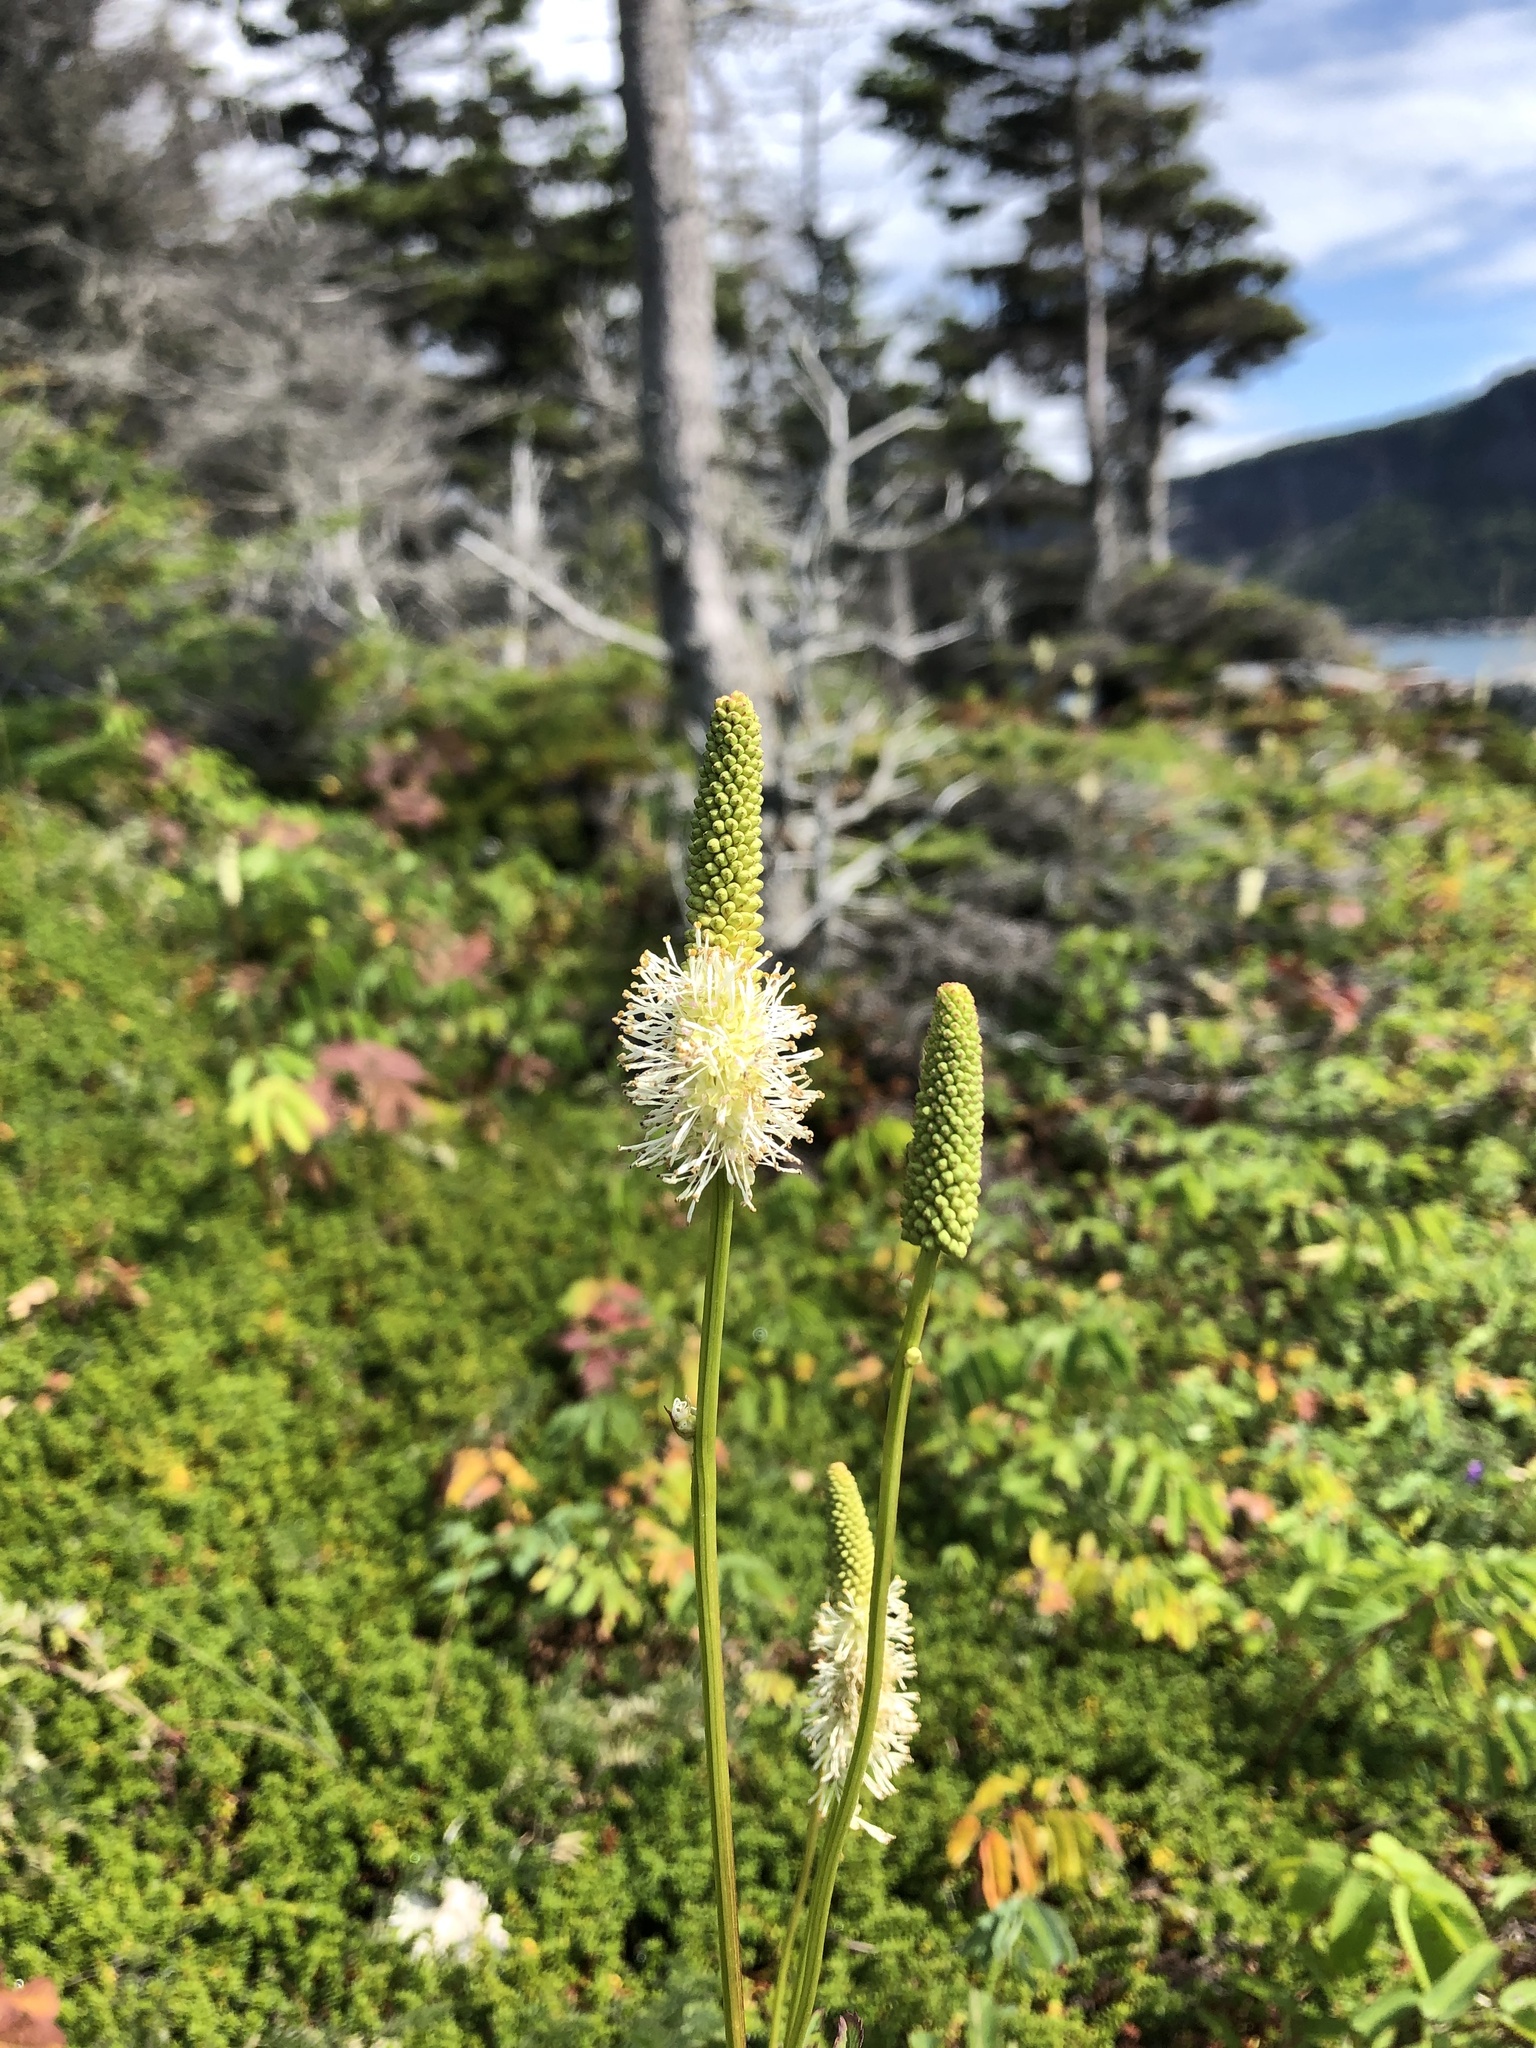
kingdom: Plantae
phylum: Tracheophyta
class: Magnoliopsida
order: Rosales
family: Rosaceae
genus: Sanguisorba
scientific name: Sanguisorba canadensis
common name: White burnet
